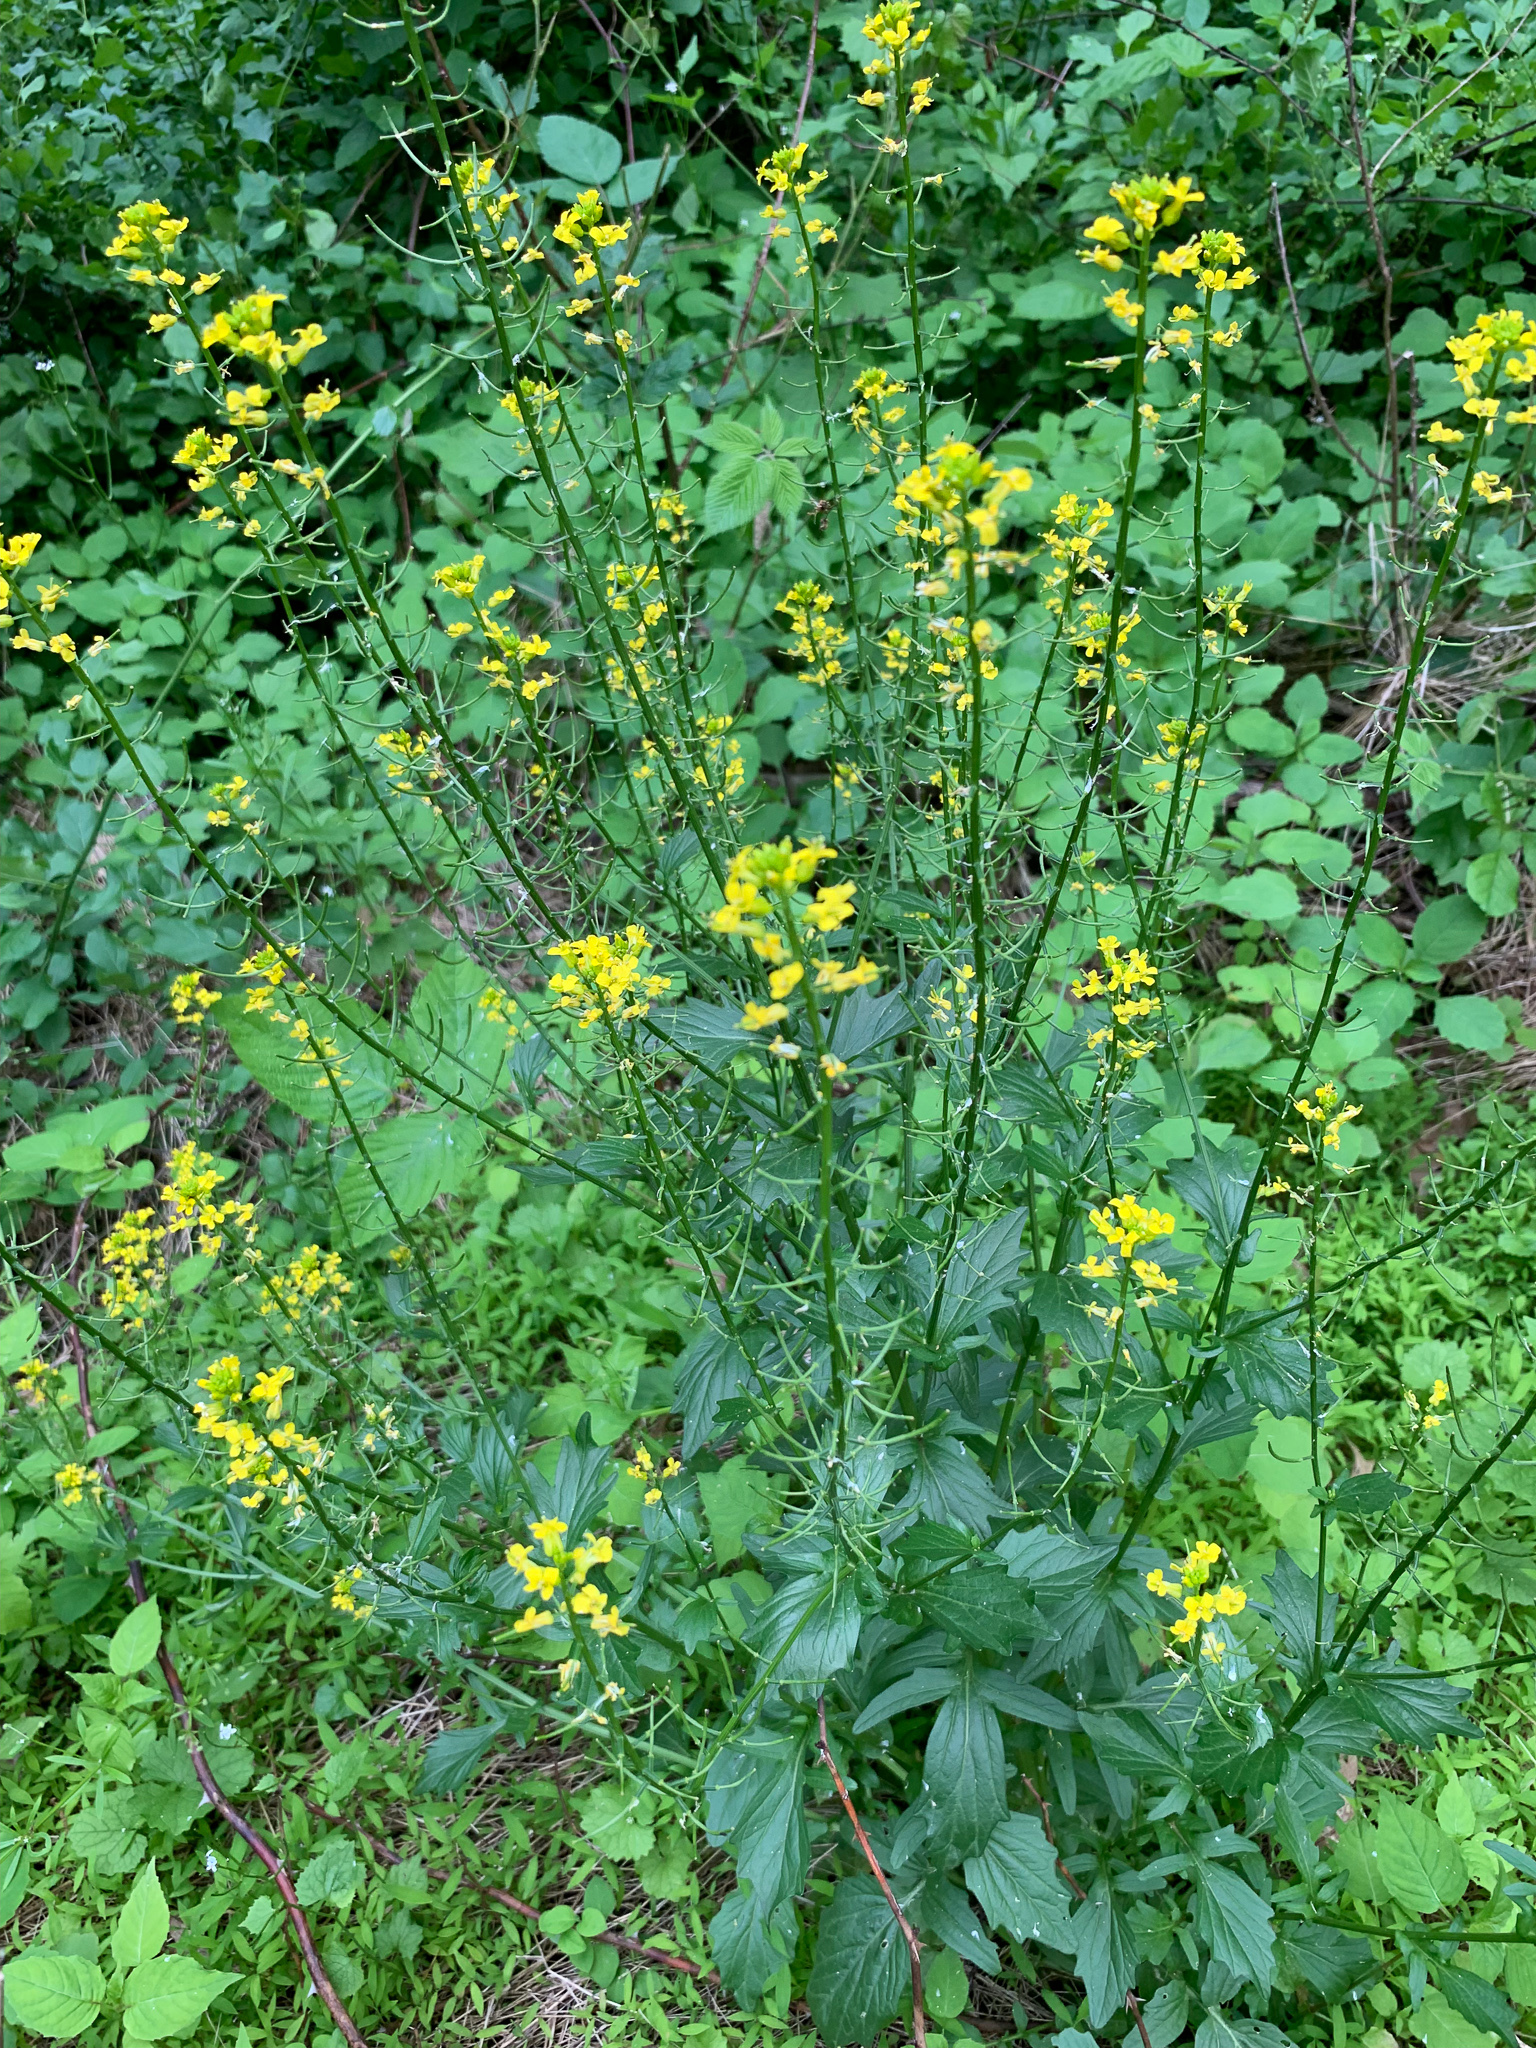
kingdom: Plantae
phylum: Tracheophyta
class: Magnoliopsida
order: Brassicales
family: Brassicaceae
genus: Barbarea
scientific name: Barbarea vulgaris
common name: Cressy-greens
